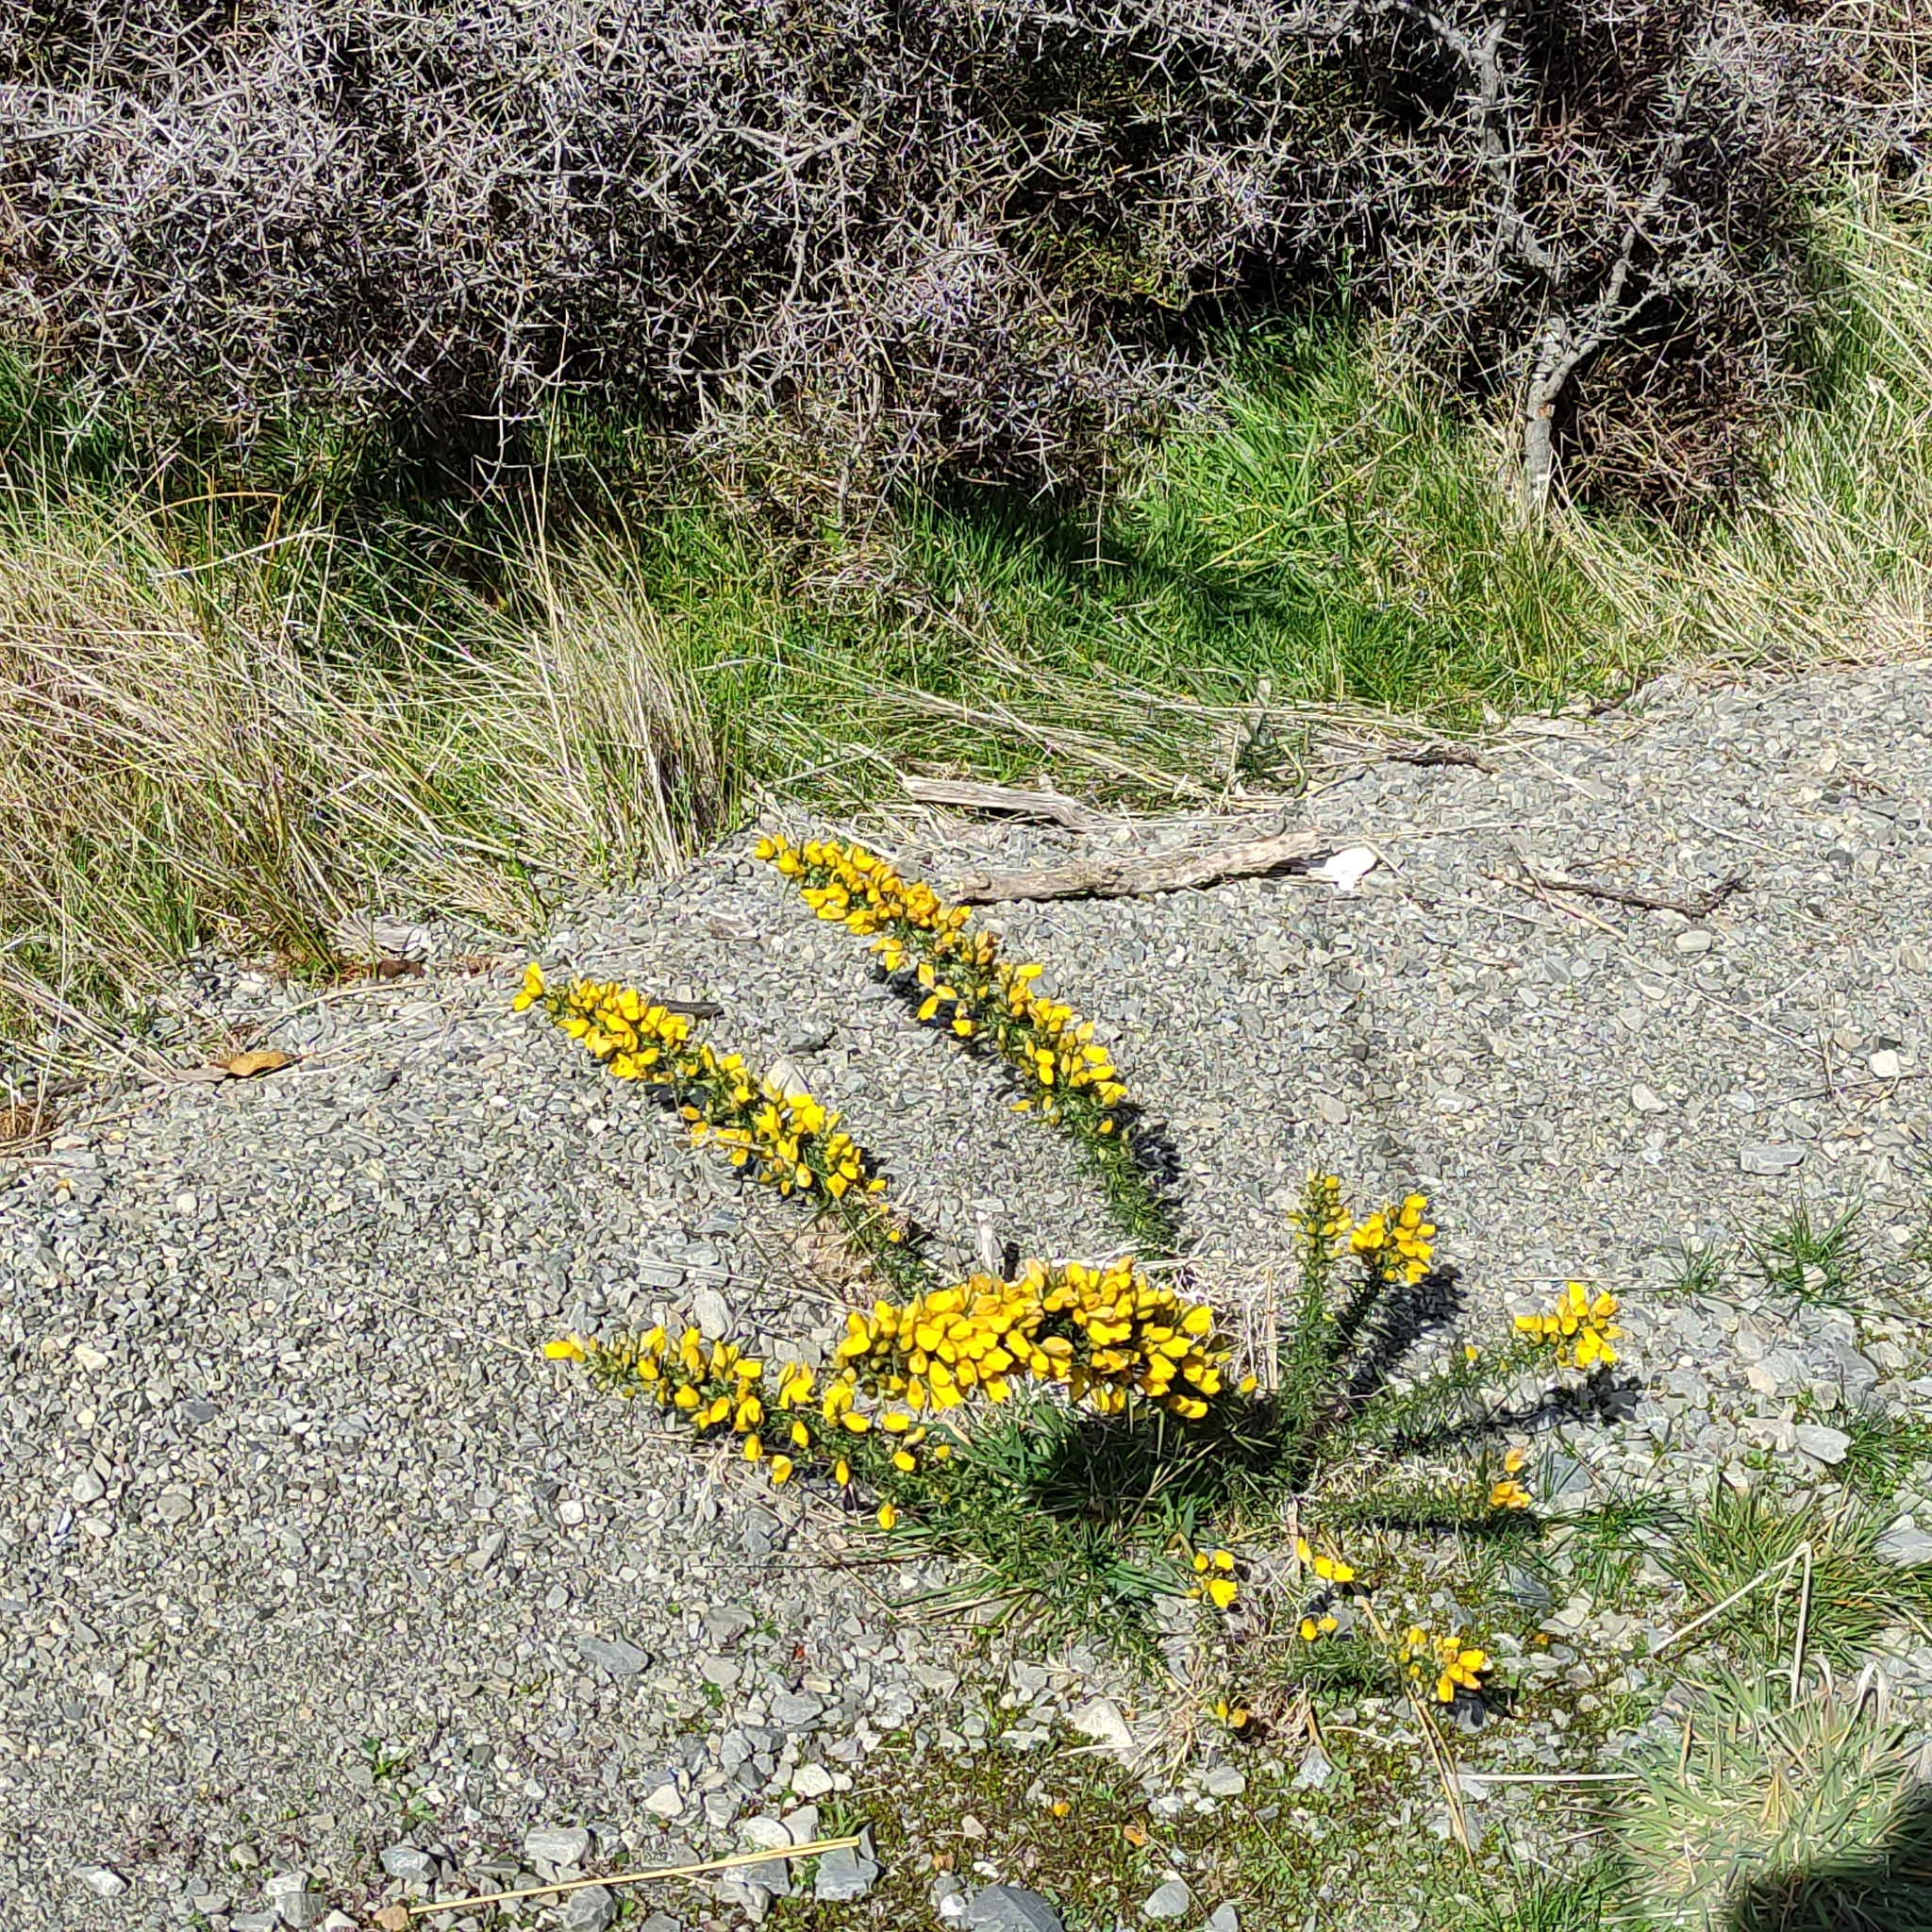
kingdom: Plantae
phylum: Tracheophyta
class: Magnoliopsida
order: Fabales
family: Fabaceae
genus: Ulex
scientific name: Ulex europaeus
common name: Common gorse
